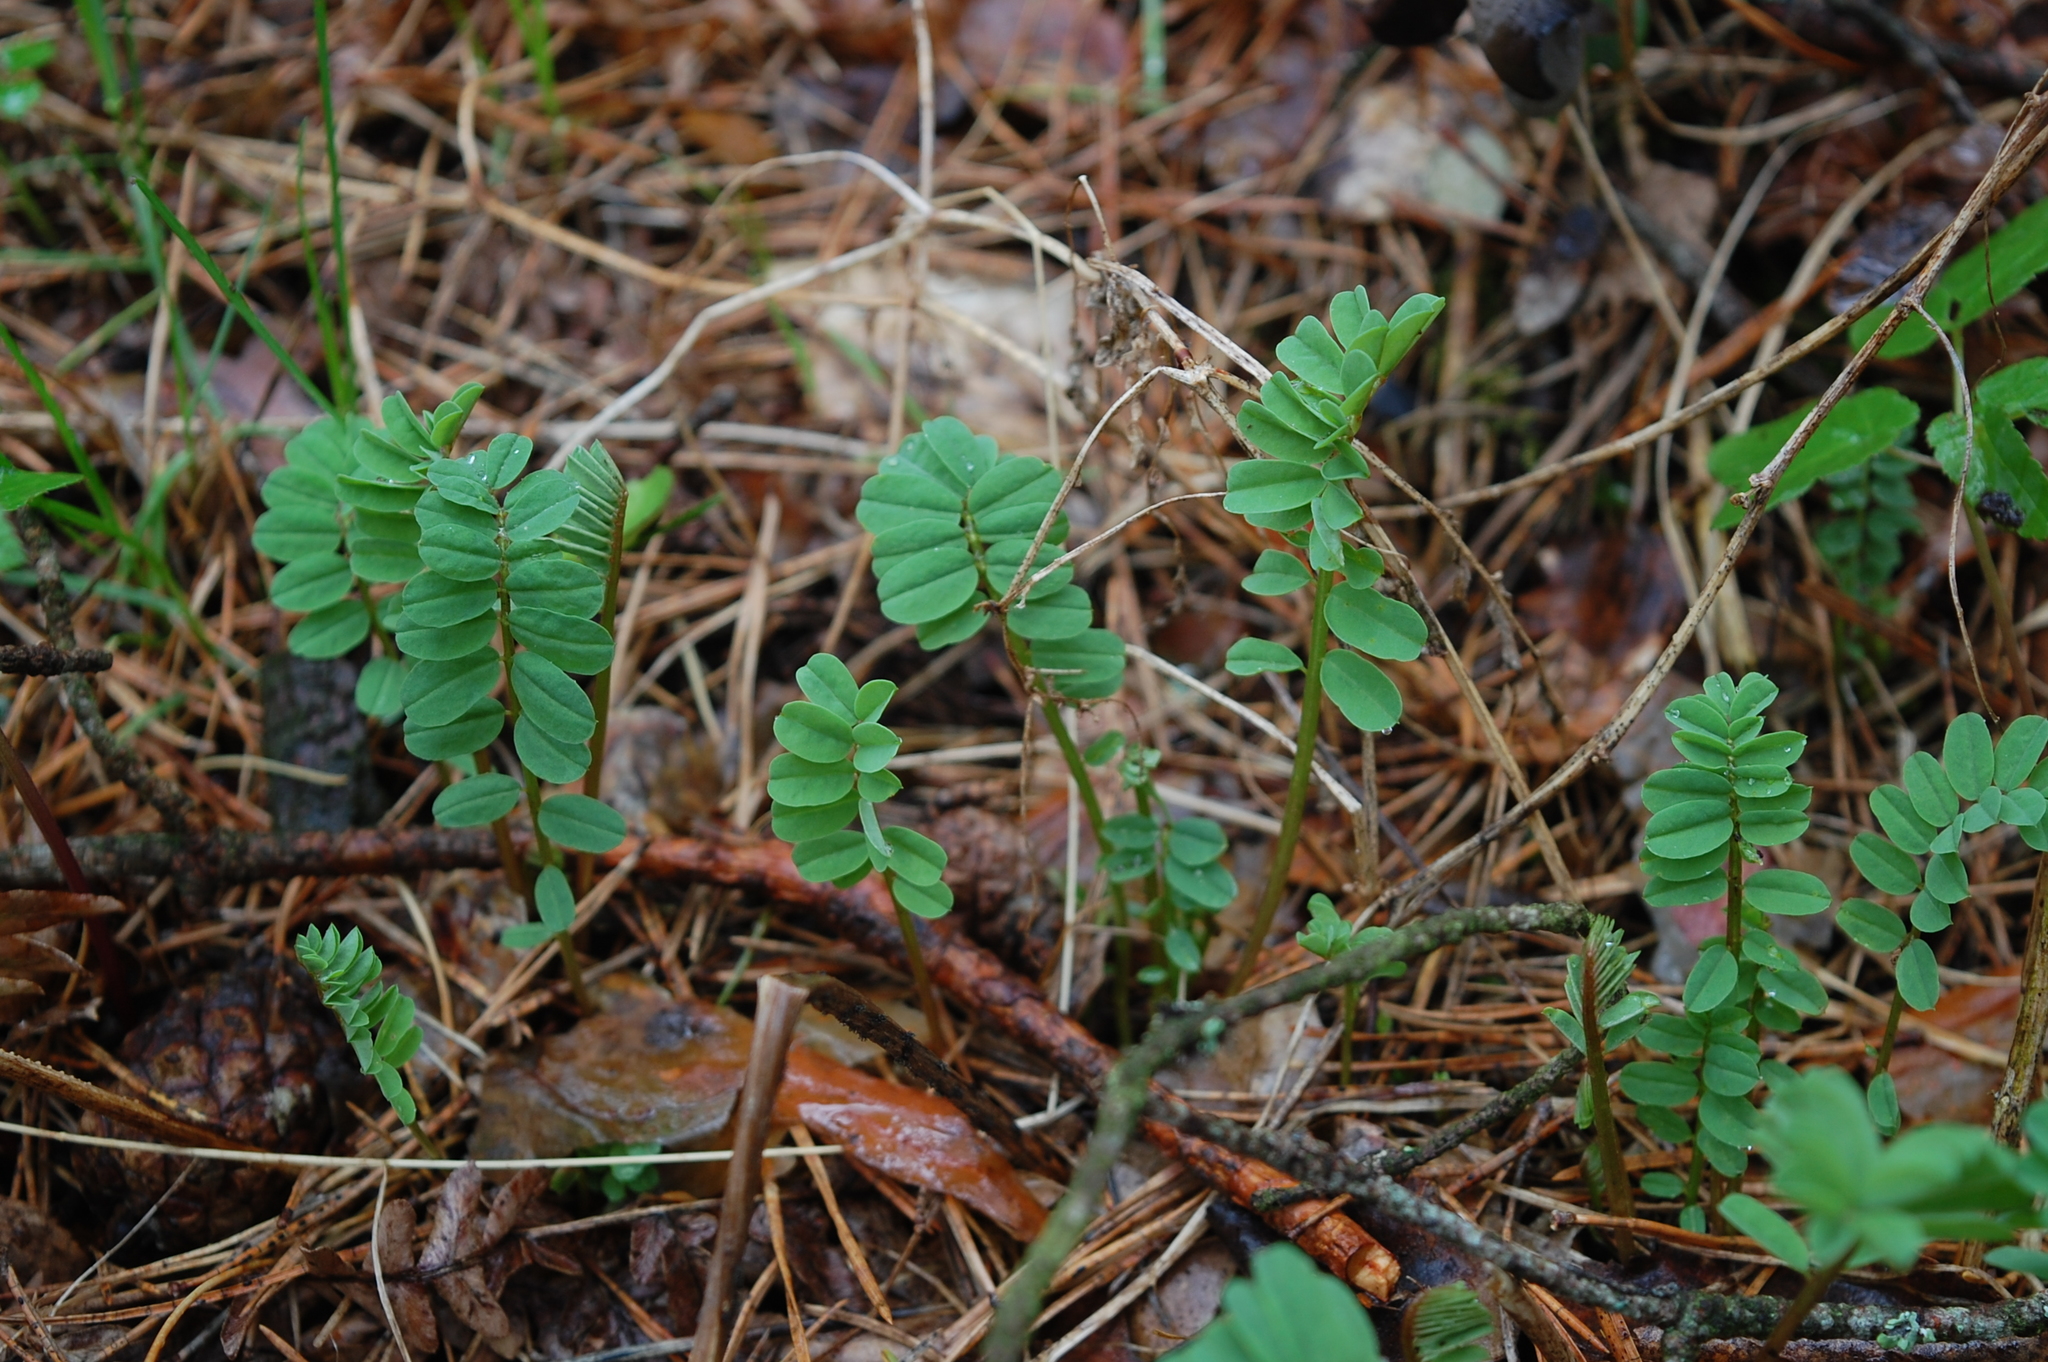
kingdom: Plantae
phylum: Tracheophyta
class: Magnoliopsida
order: Fabales
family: Fabaceae
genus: Coronilla
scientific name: Coronilla varia
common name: Crownvetch
